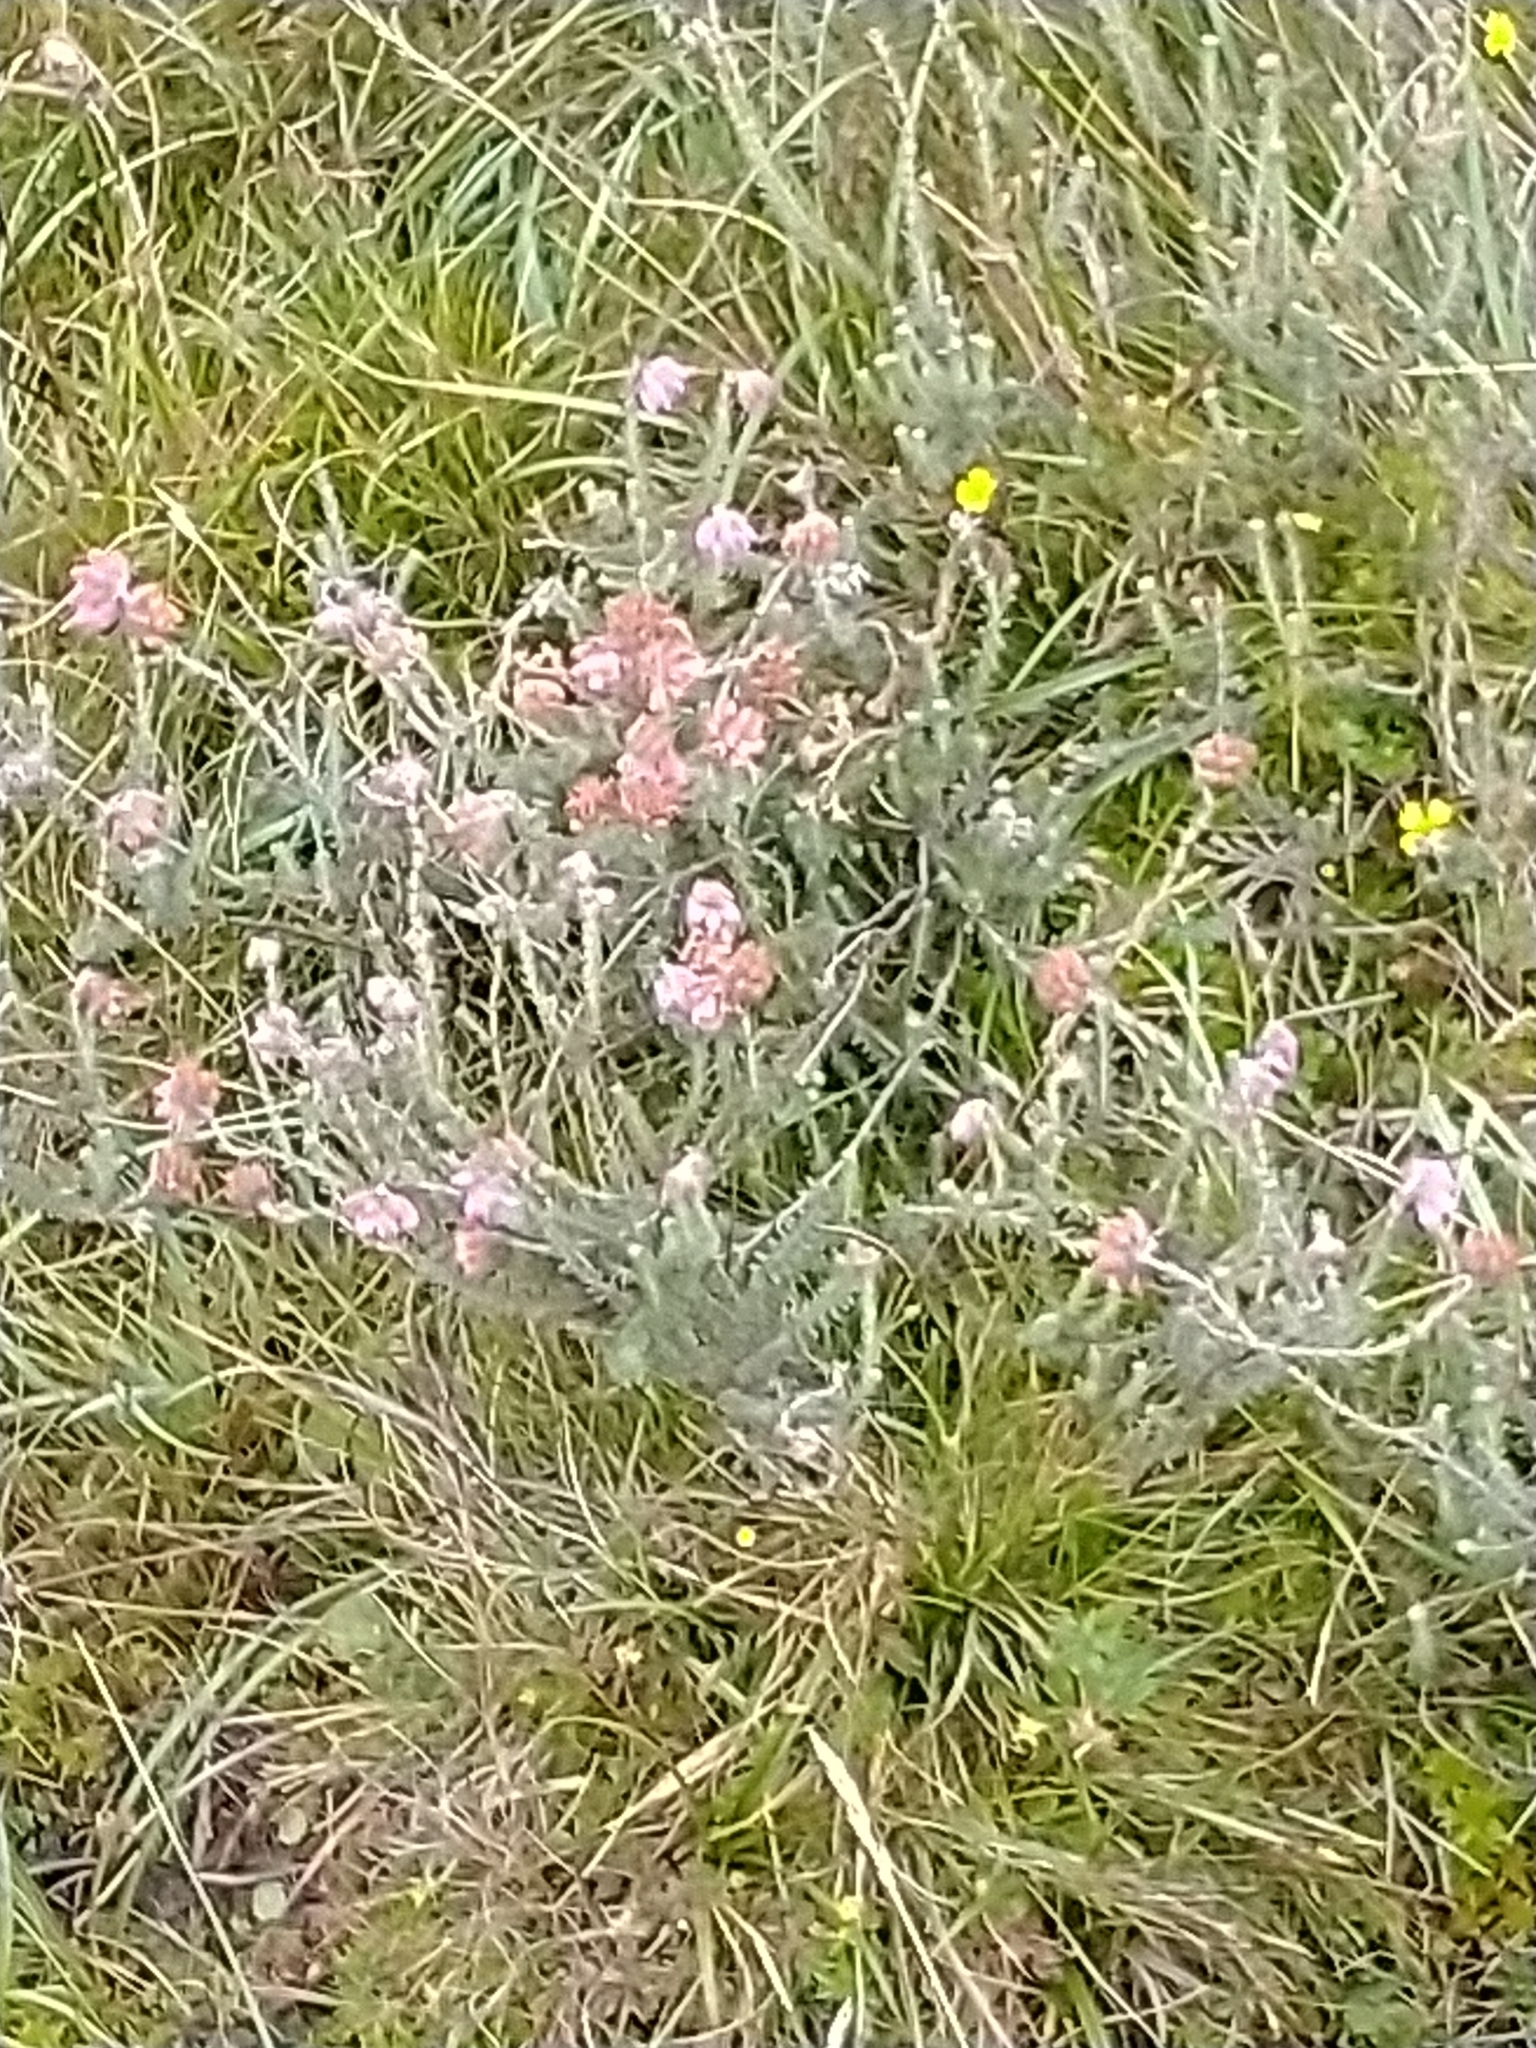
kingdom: Plantae
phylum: Tracheophyta
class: Magnoliopsida
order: Ericales
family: Ericaceae
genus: Erica
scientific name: Erica tetralix
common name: Cross-leaved heath
